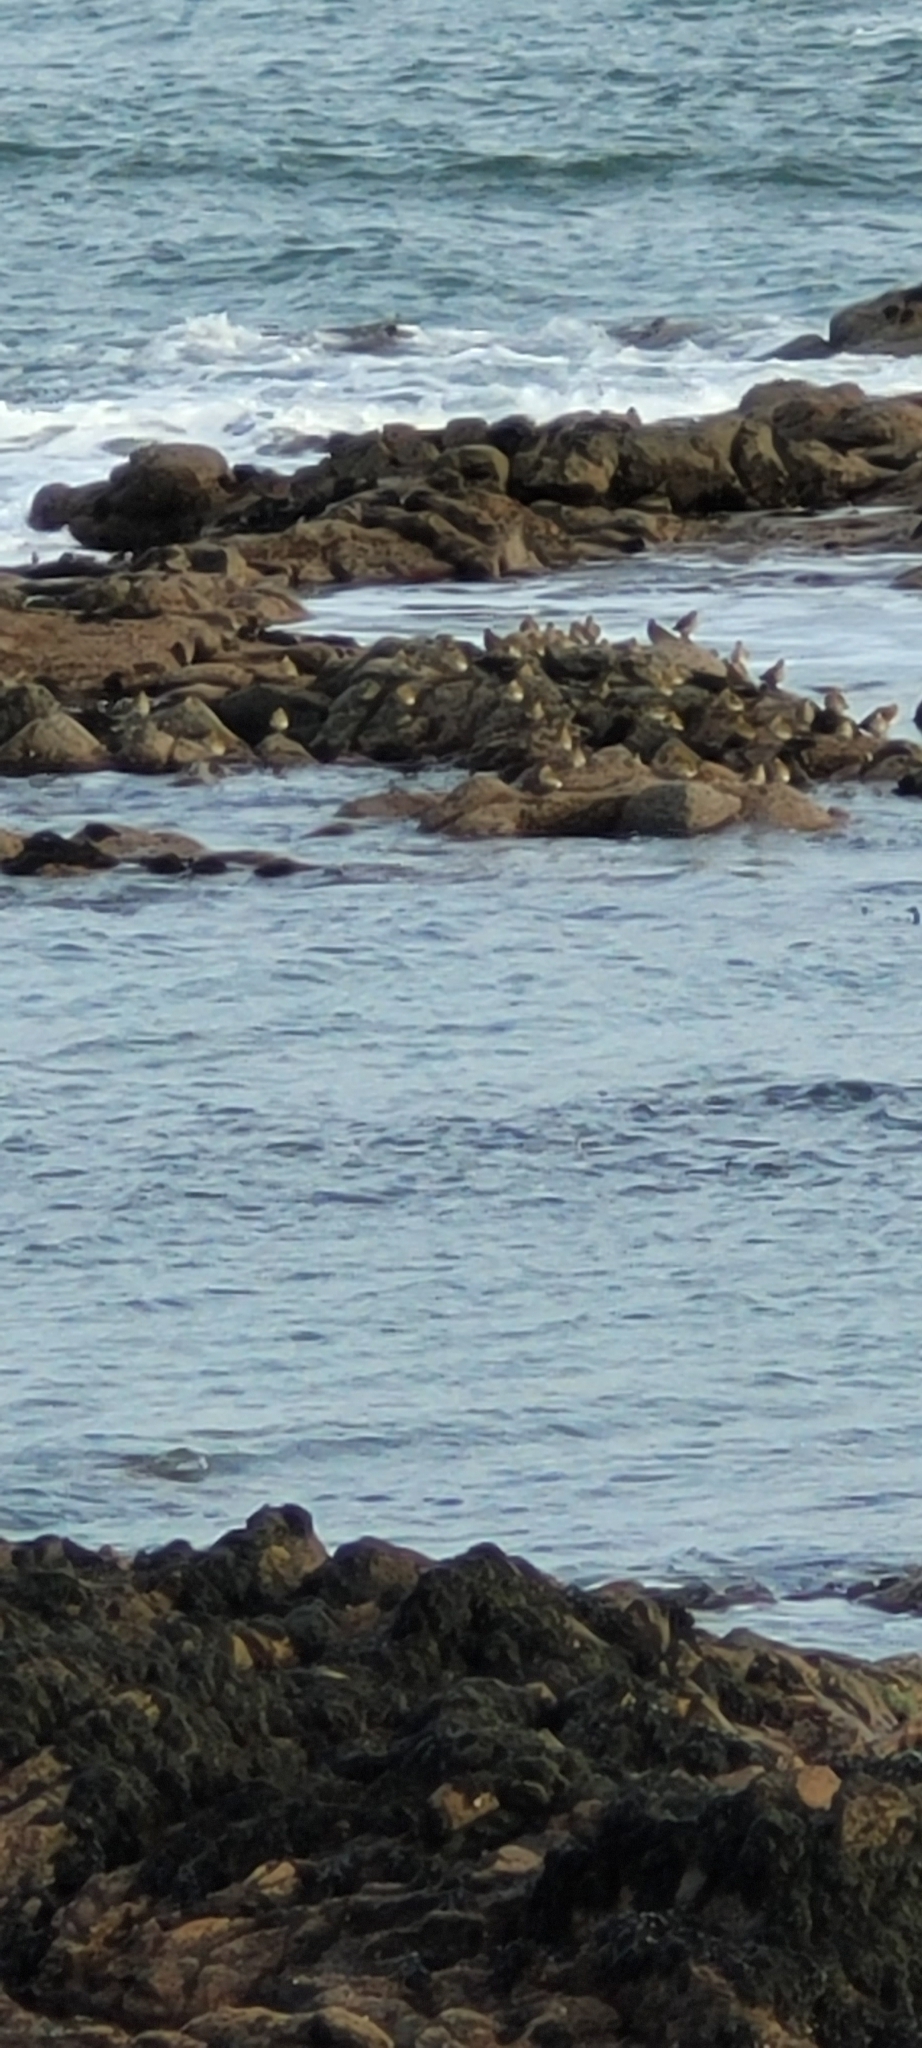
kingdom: Animalia
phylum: Chordata
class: Aves
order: Charadriiformes
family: Charadriidae
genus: Pluvialis
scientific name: Pluvialis apricaria
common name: European golden plover
